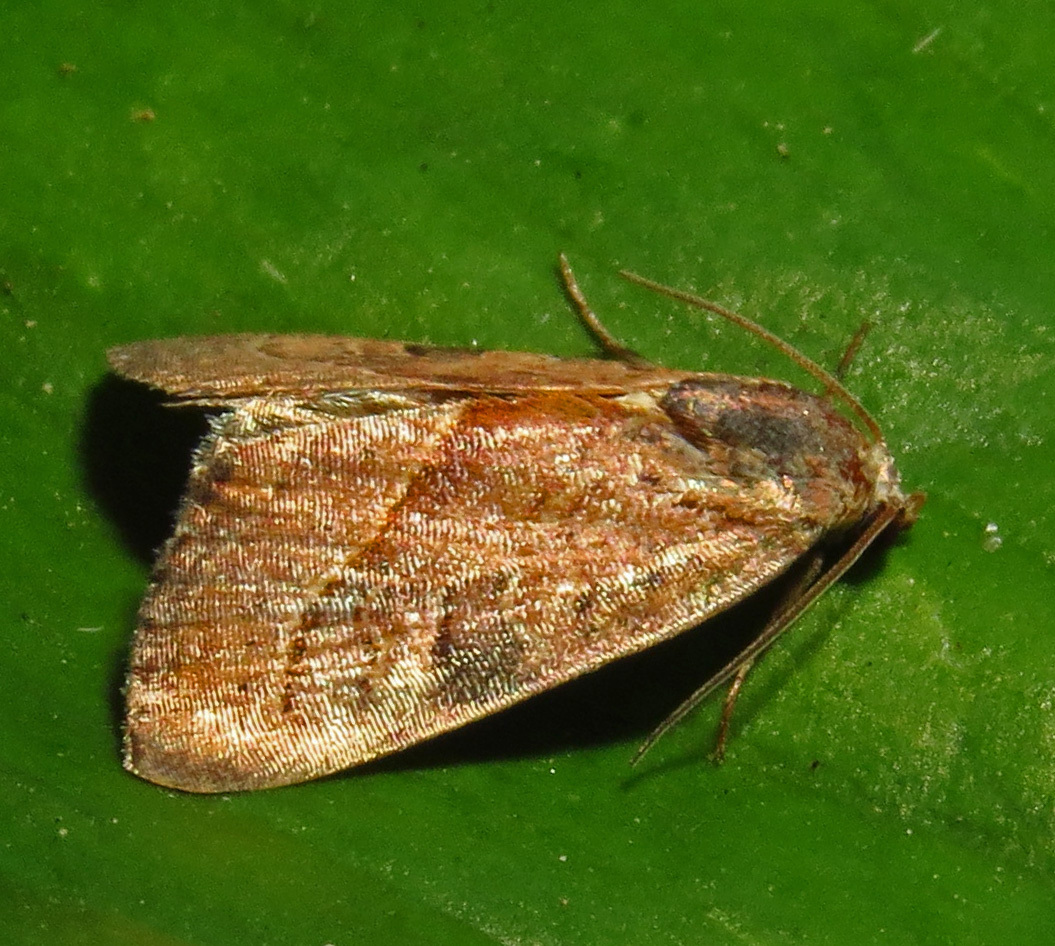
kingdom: Animalia
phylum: Arthropoda
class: Insecta
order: Lepidoptera
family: Noctuidae
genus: Galgula
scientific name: Galgula partita
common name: Wedgeling
